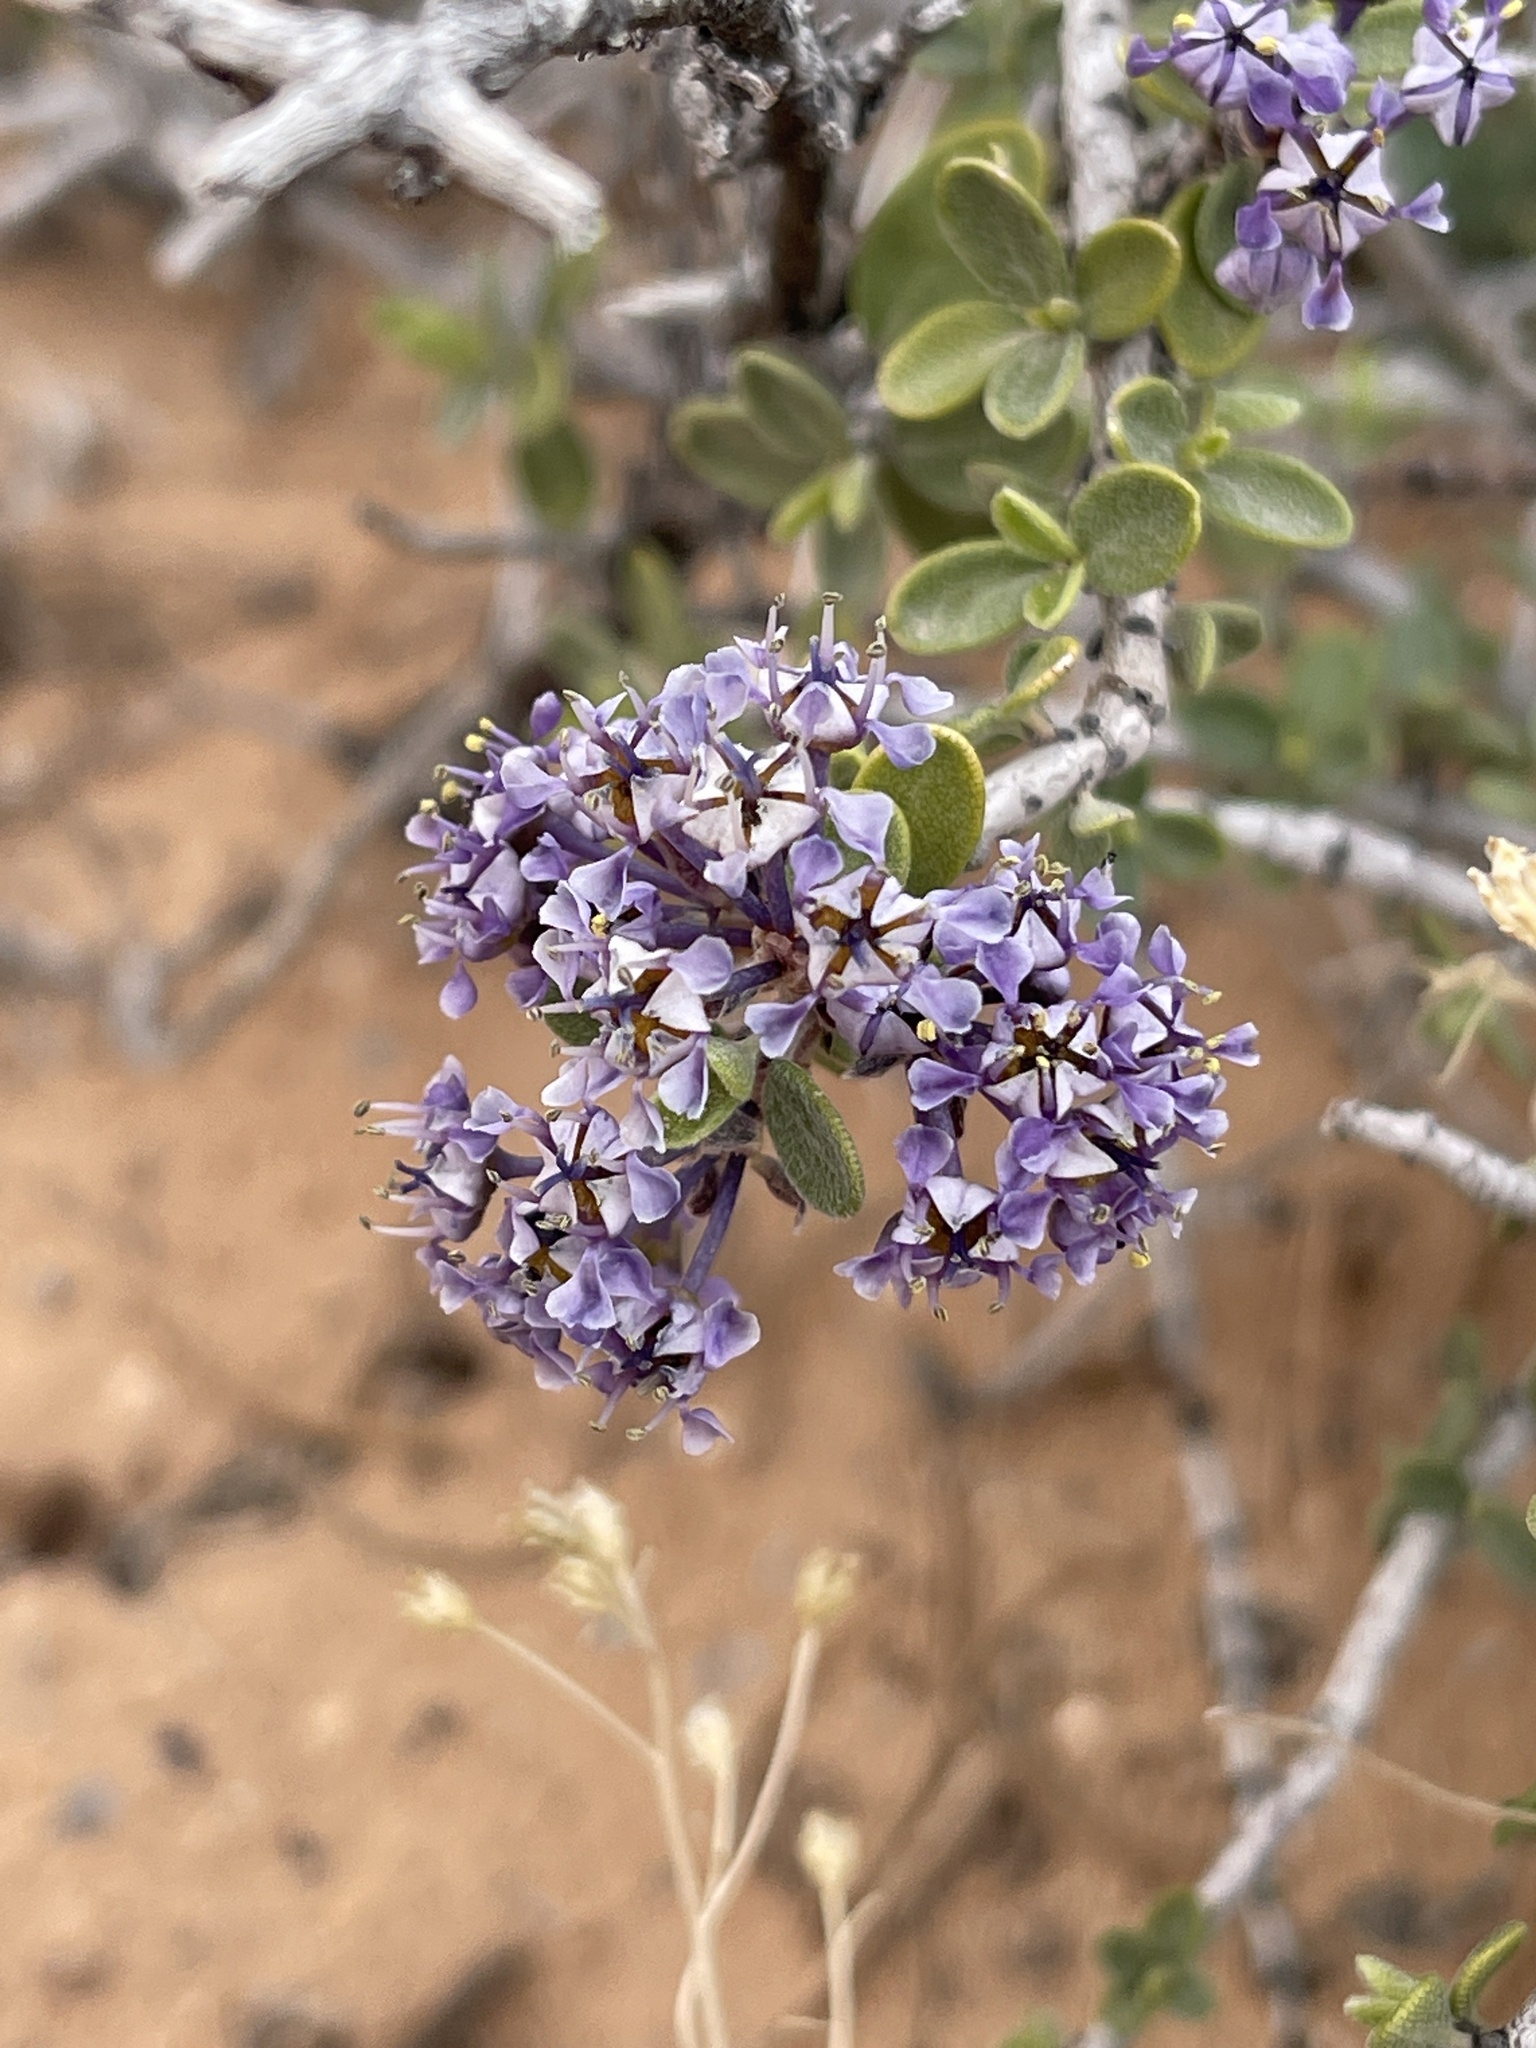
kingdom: Plantae
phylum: Tracheophyta
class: Magnoliopsida
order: Rosales
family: Rhamnaceae
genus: Ceanothus
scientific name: Ceanothus pauciflorus
